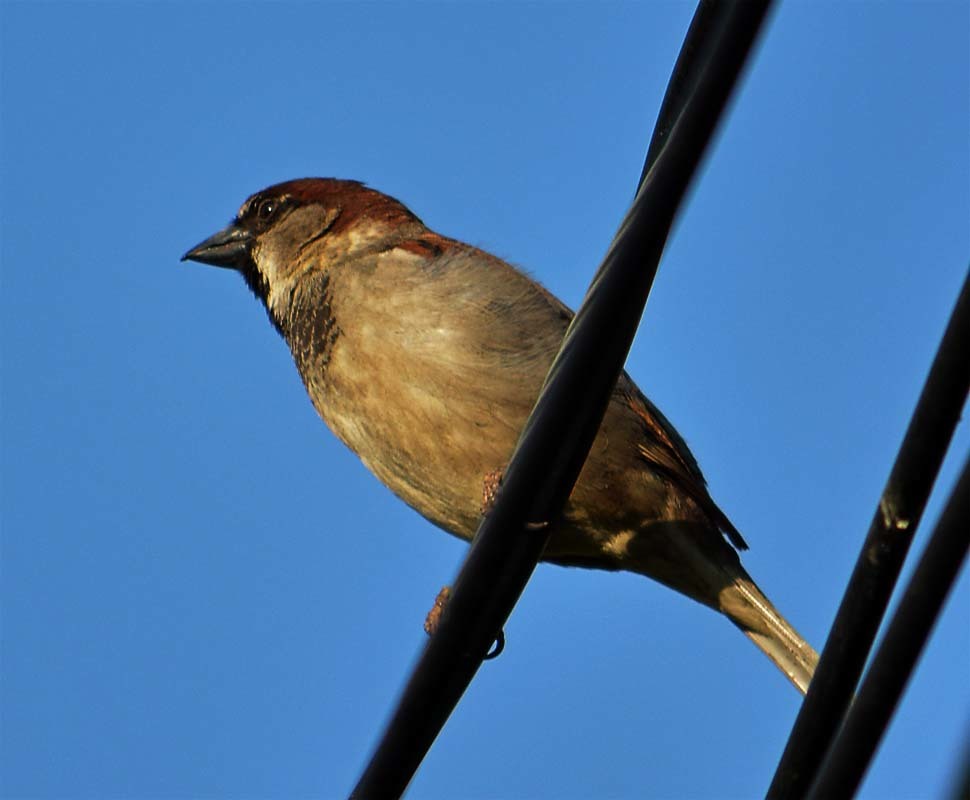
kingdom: Animalia
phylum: Chordata
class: Aves
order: Passeriformes
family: Passeridae
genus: Passer
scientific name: Passer domesticus
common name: House sparrow
